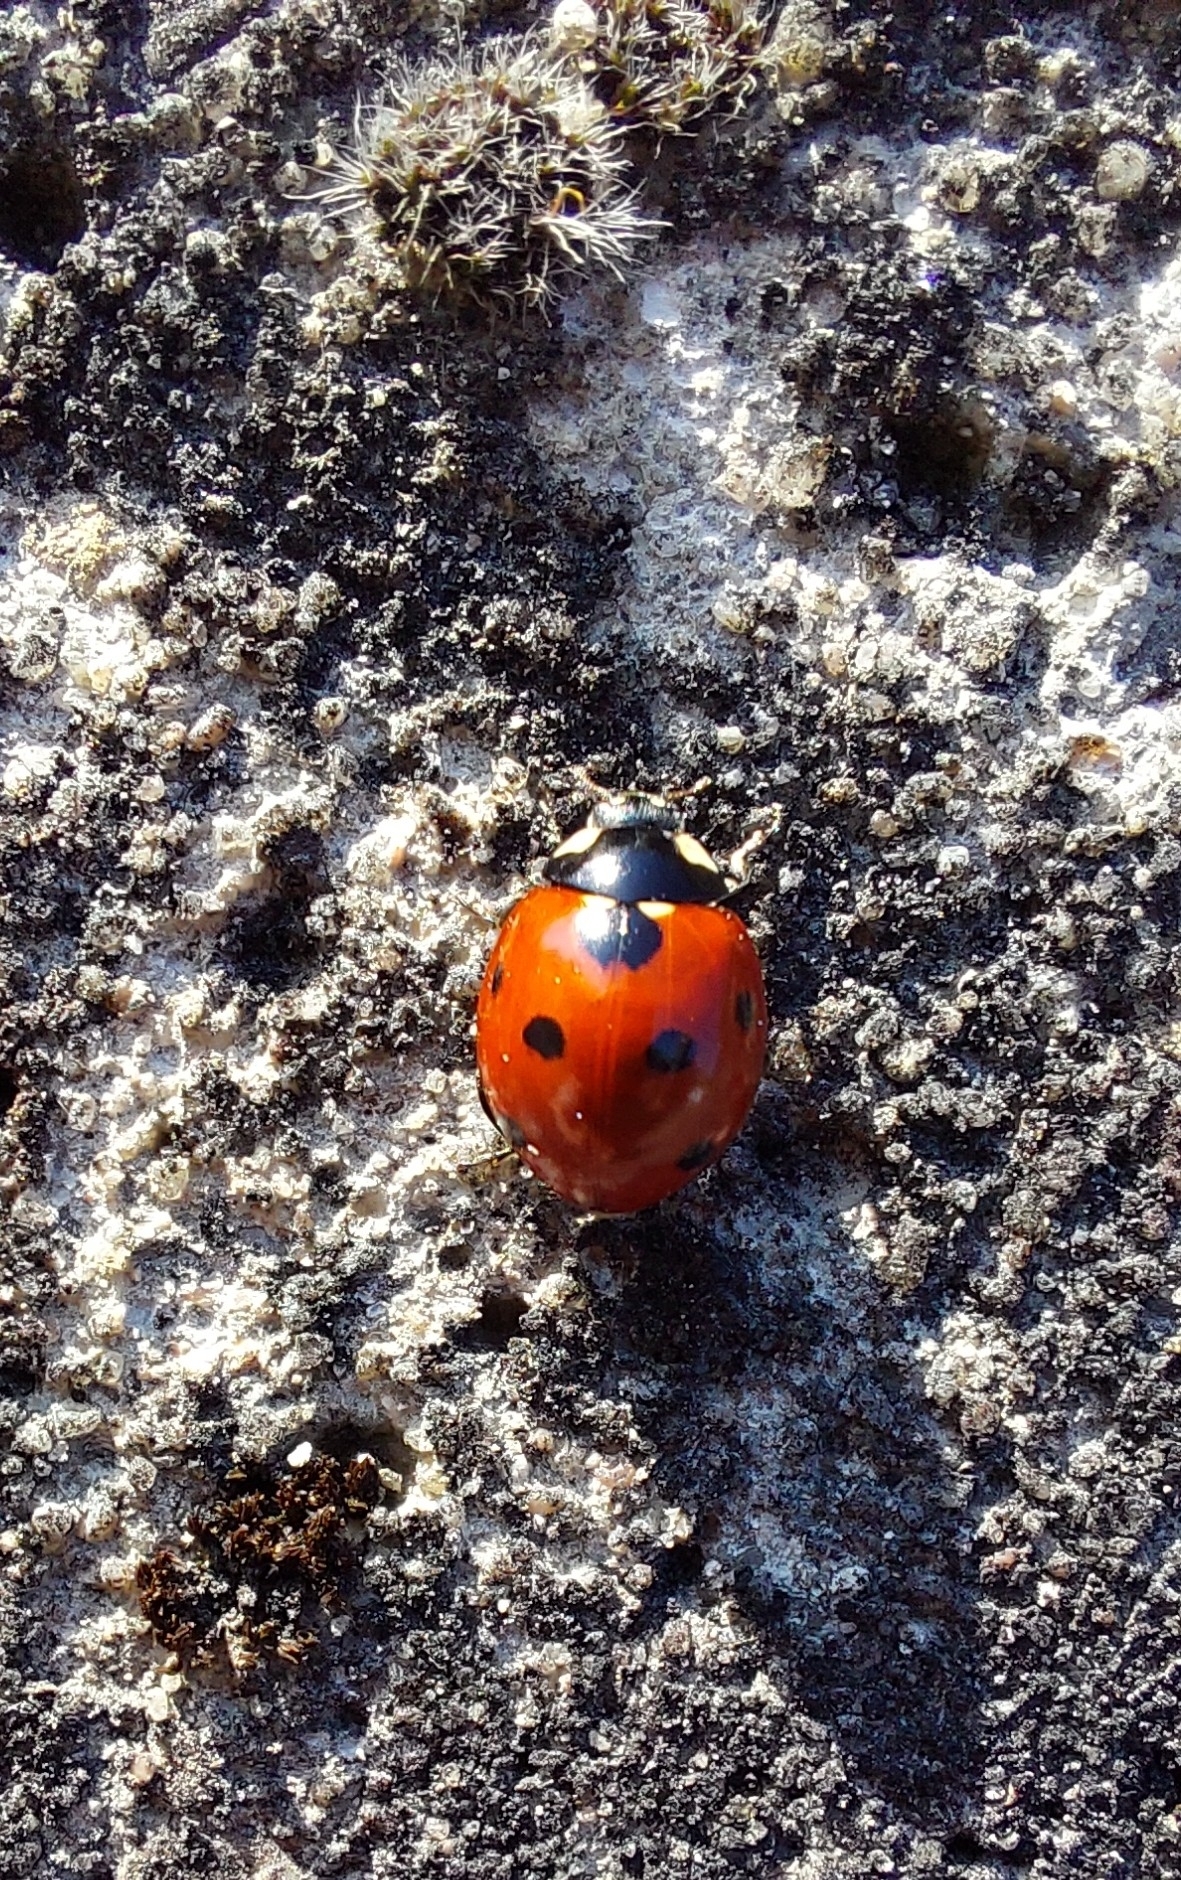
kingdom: Animalia
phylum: Arthropoda
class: Insecta
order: Coleoptera
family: Coccinellidae
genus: Coccinella
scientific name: Coccinella septempunctata
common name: Sevenspotted lady beetle
